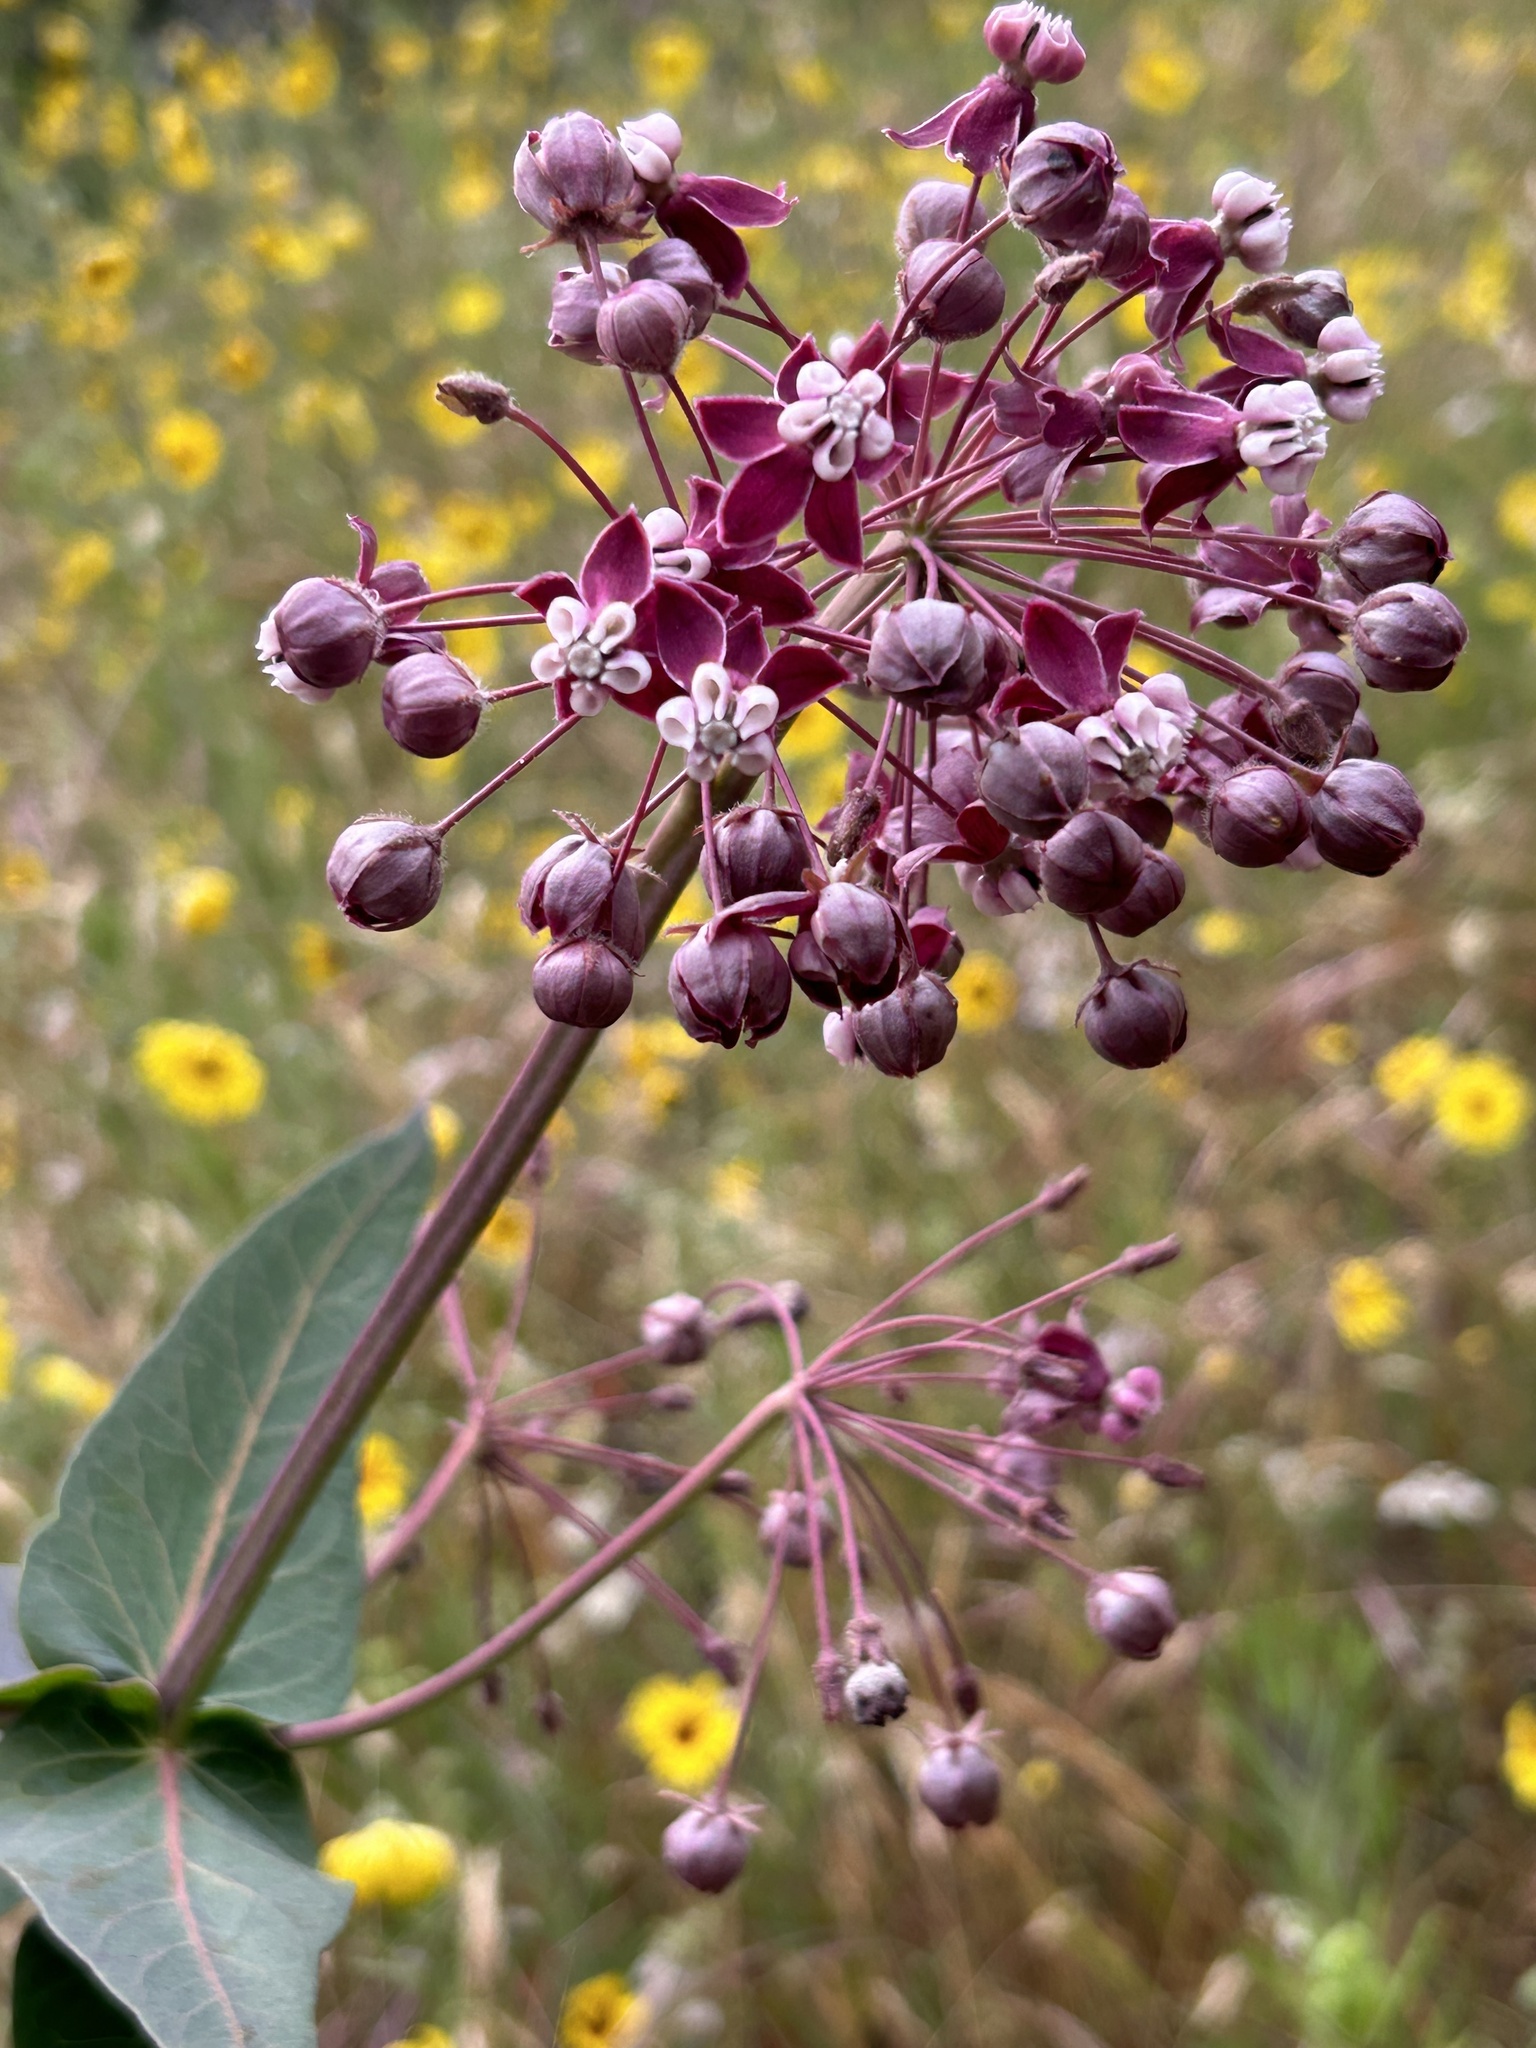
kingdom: Plantae
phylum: Tracheophyta
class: Magnoliopsida
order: Gentianales
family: Apocynaceae
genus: Asclepias
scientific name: Asclepias cordifolia
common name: Purple milkweed
